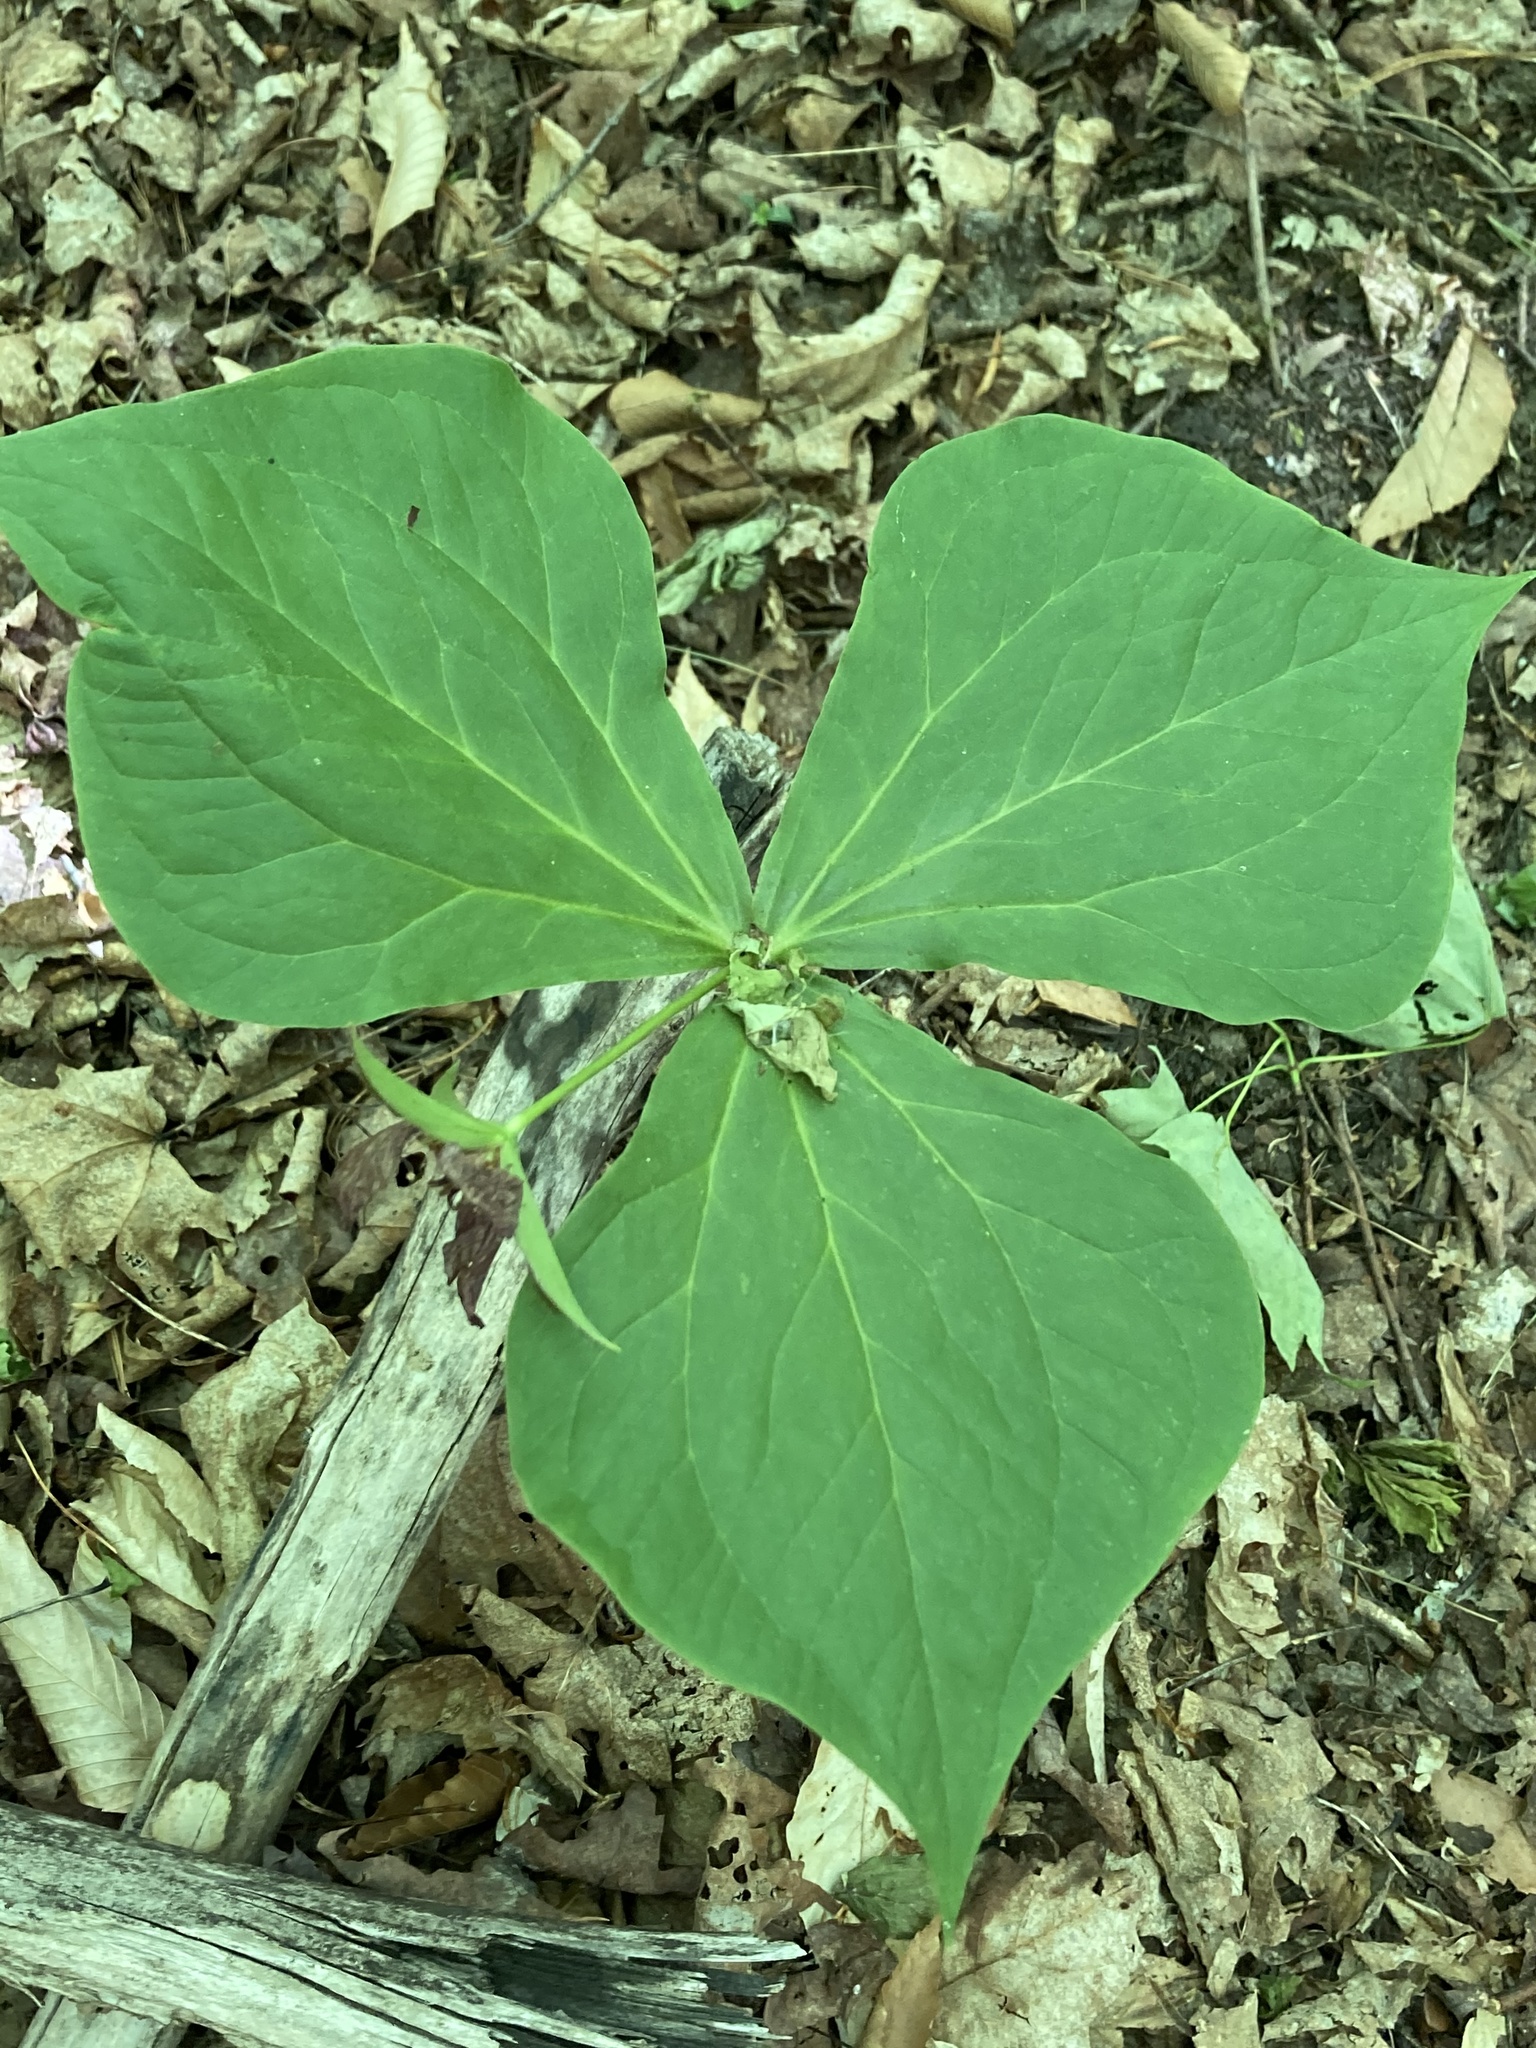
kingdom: Plantae
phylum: Tracheophyta
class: Liliopsida
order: Liliales
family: Melanthiaceae
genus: Trillium
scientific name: Trillium erectum
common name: Purple trillium
